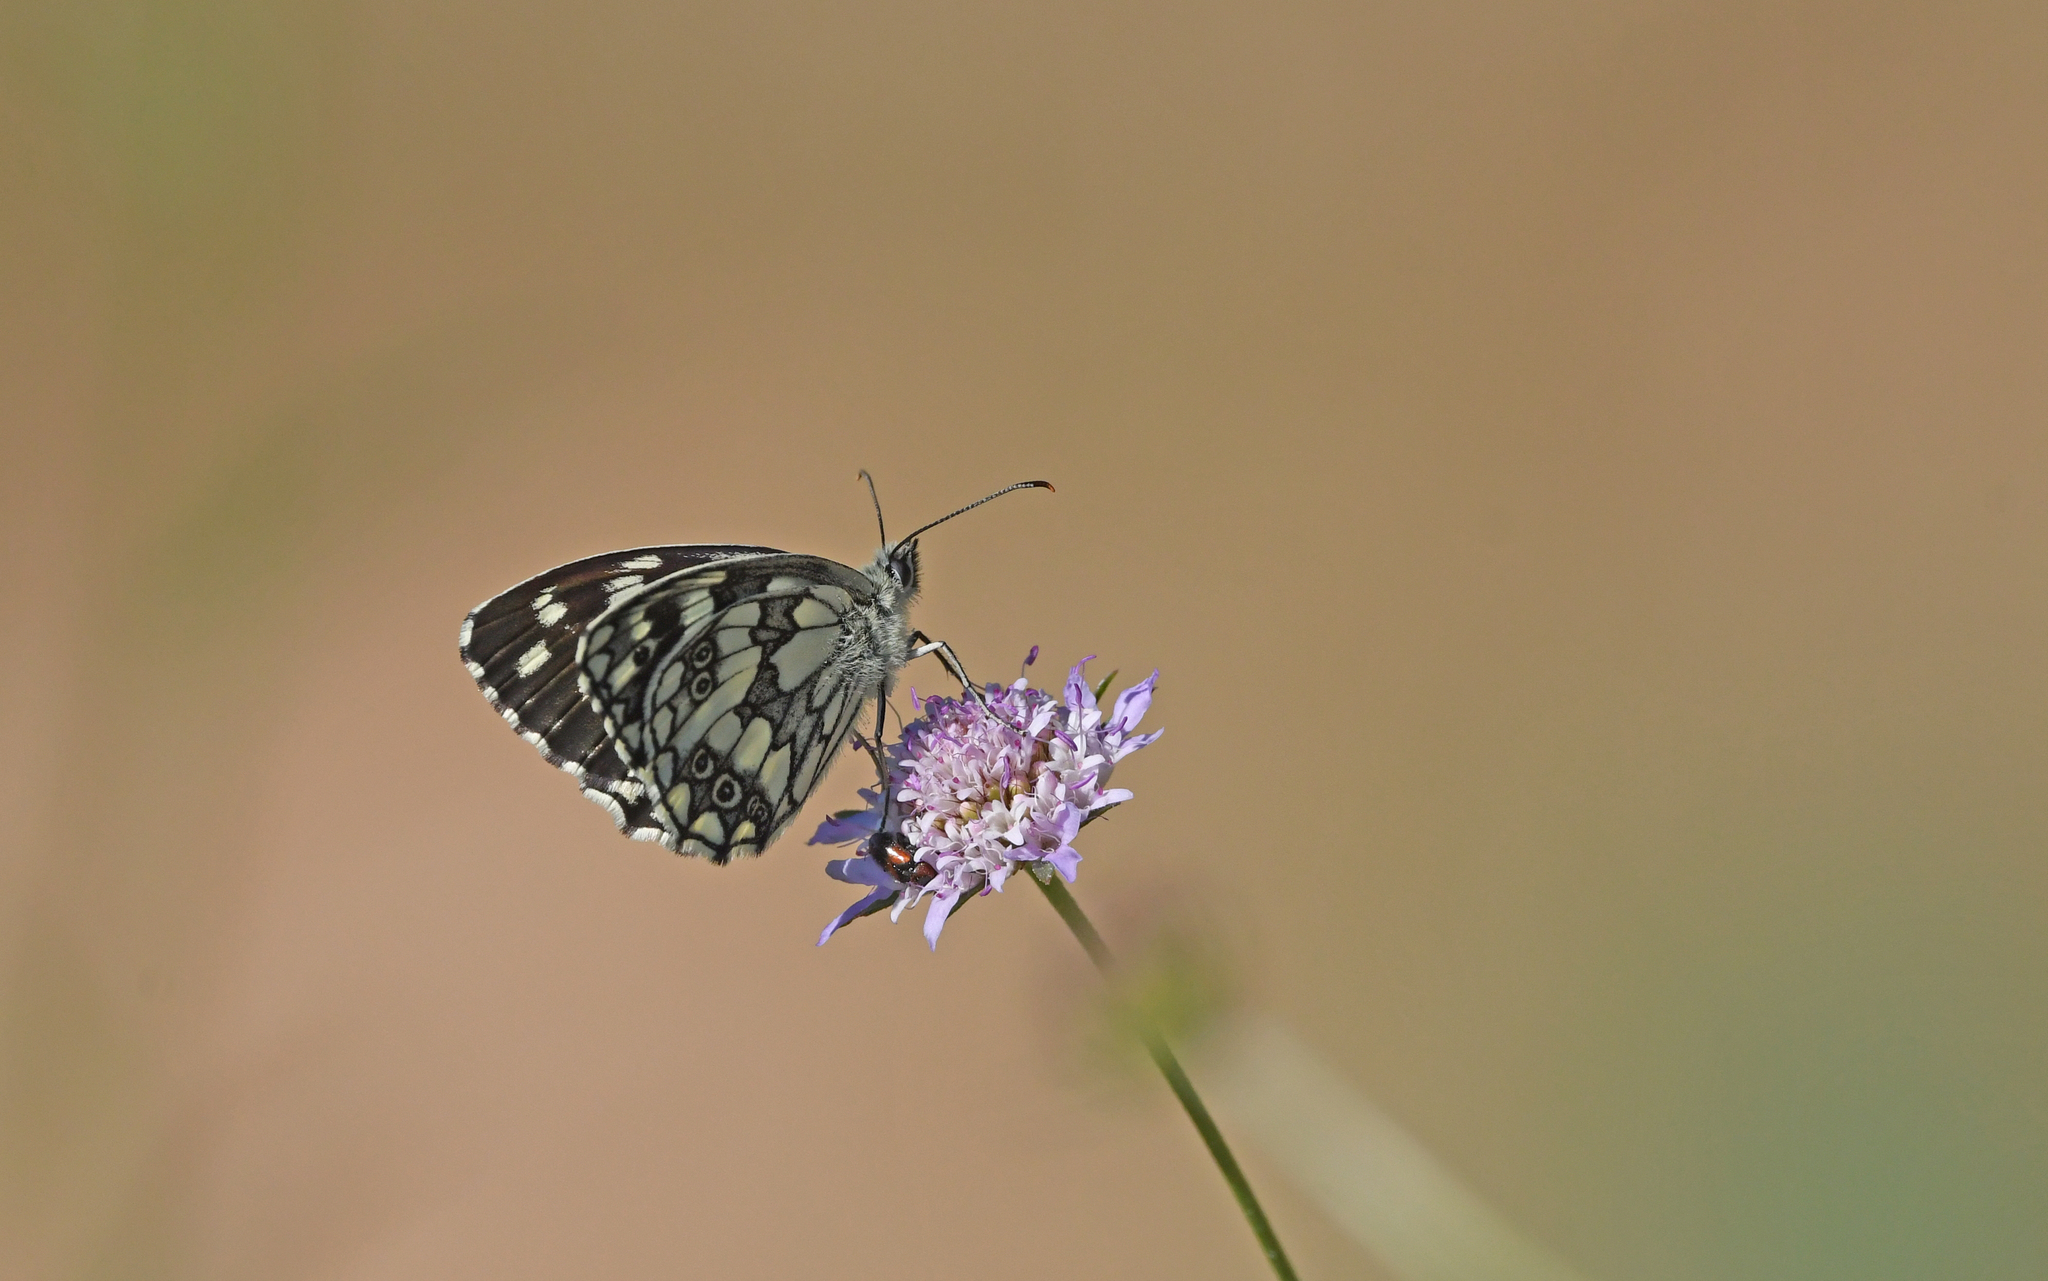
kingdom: Animalia
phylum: Arthropoda
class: Insecta
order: Lepidoptera
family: Nymphalidae
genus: Melanargia
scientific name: Melanargia galathea
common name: Marbled white
